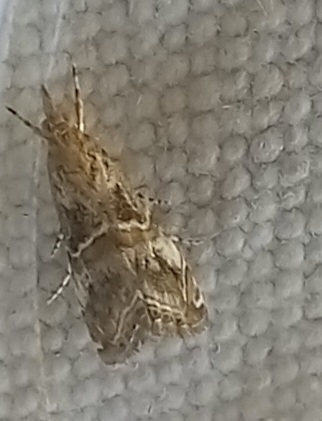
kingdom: Animalia
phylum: Arthropoda
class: Insecta
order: Lepidoptera
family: Crambidae
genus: Euchromius
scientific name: Euchromius cambridgei
